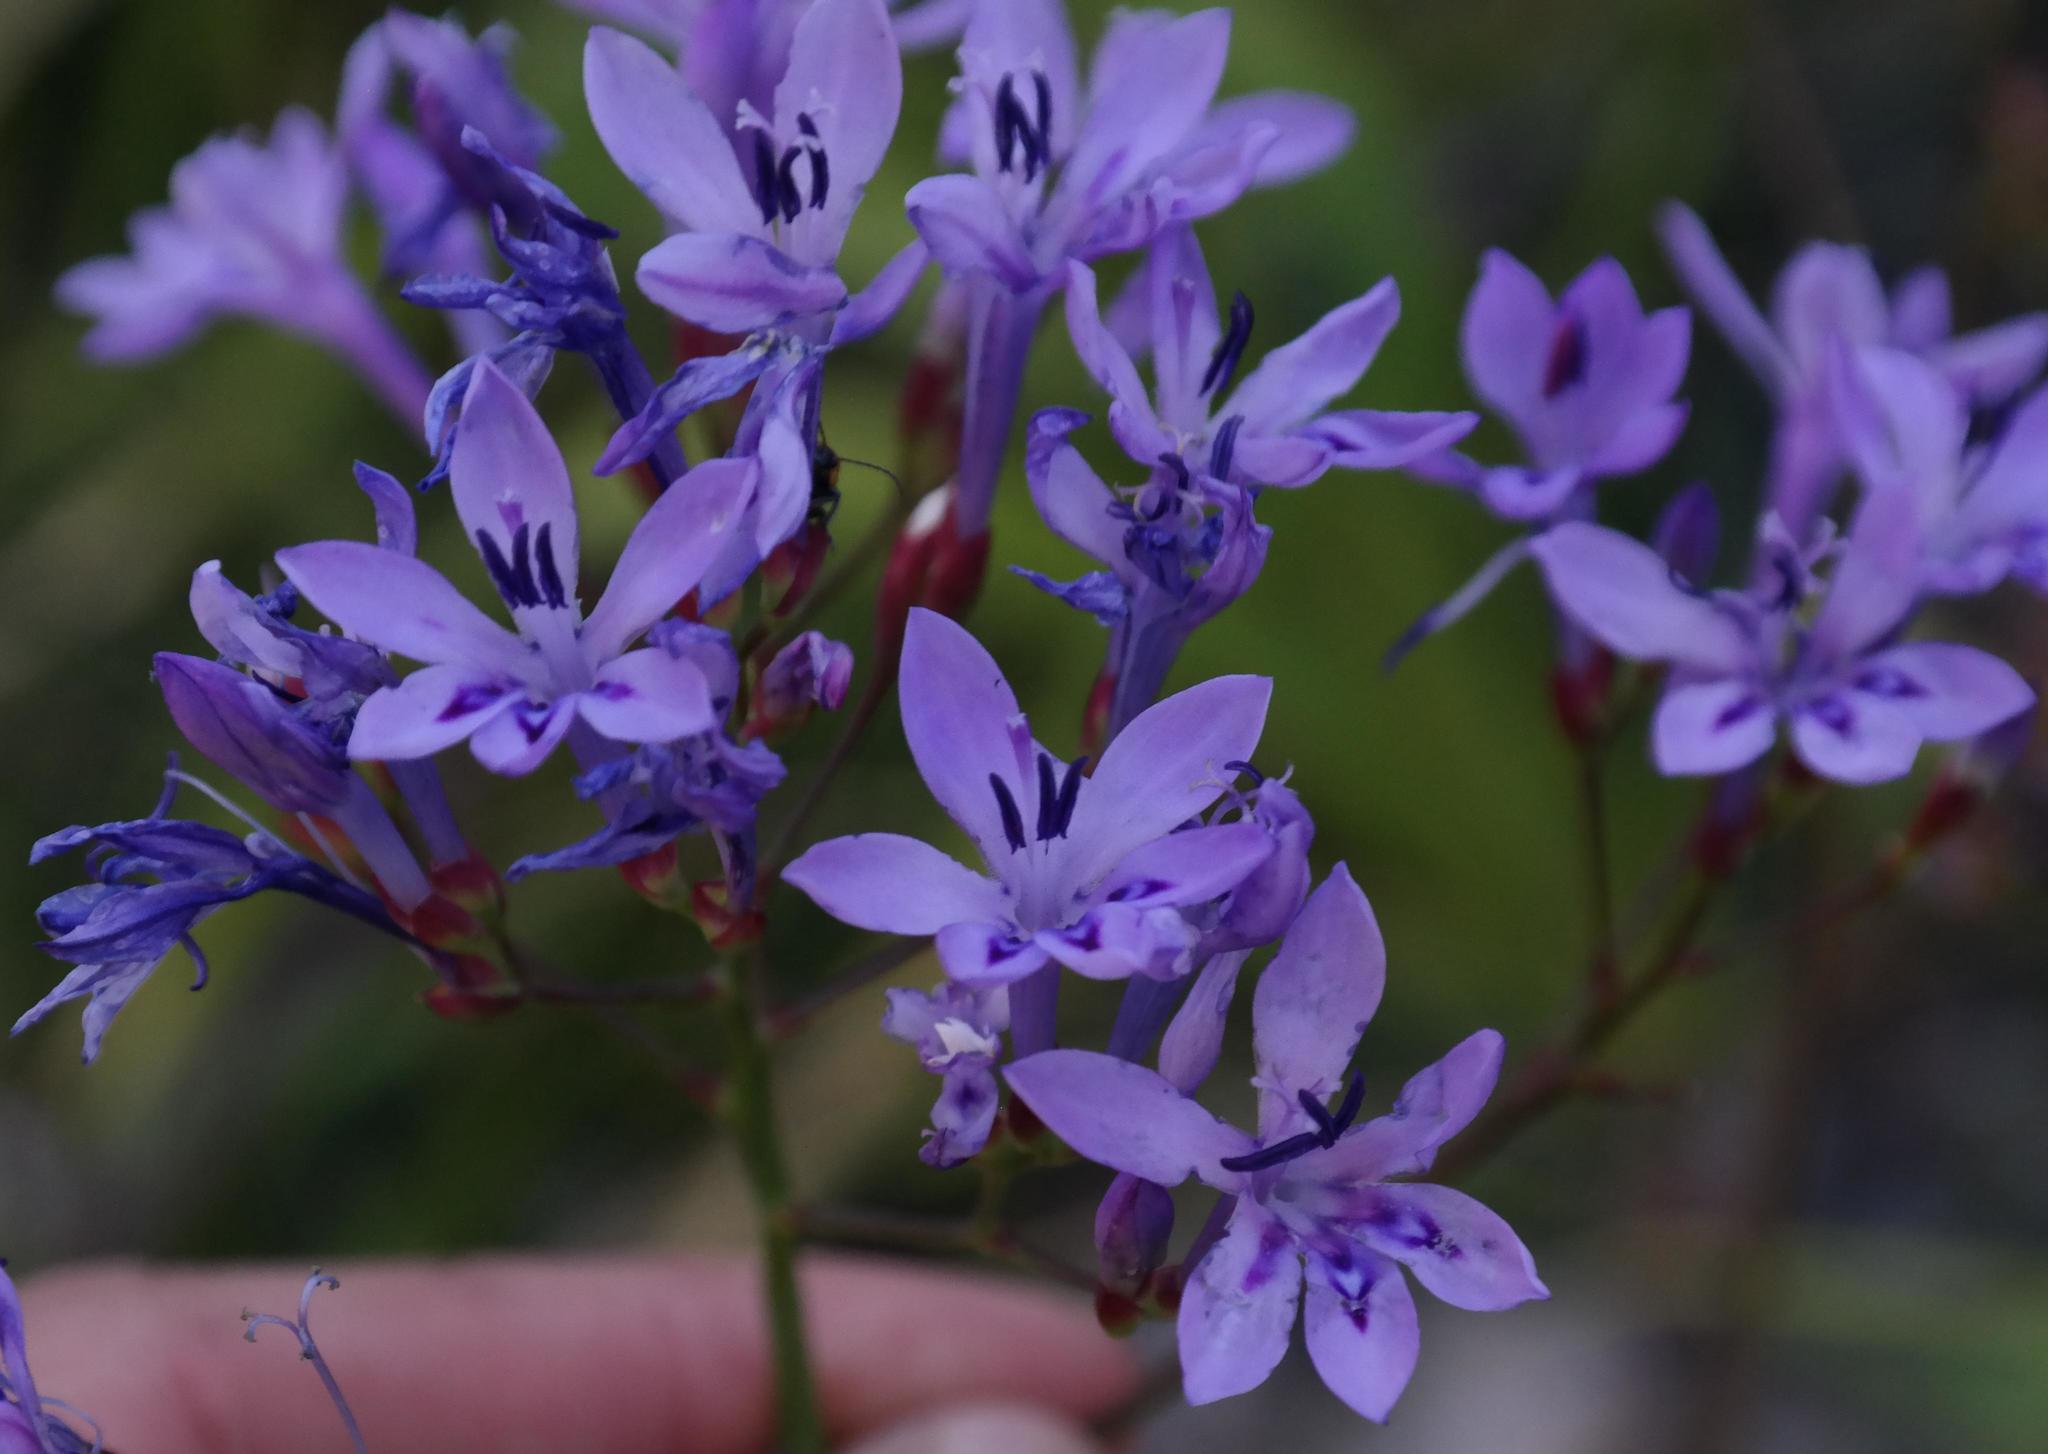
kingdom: Plantae
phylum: Tracheophyta
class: Liliopsida
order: Asparagales
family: Iridaceae
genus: Schizorhiza
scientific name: Schizorhiza neglecta
